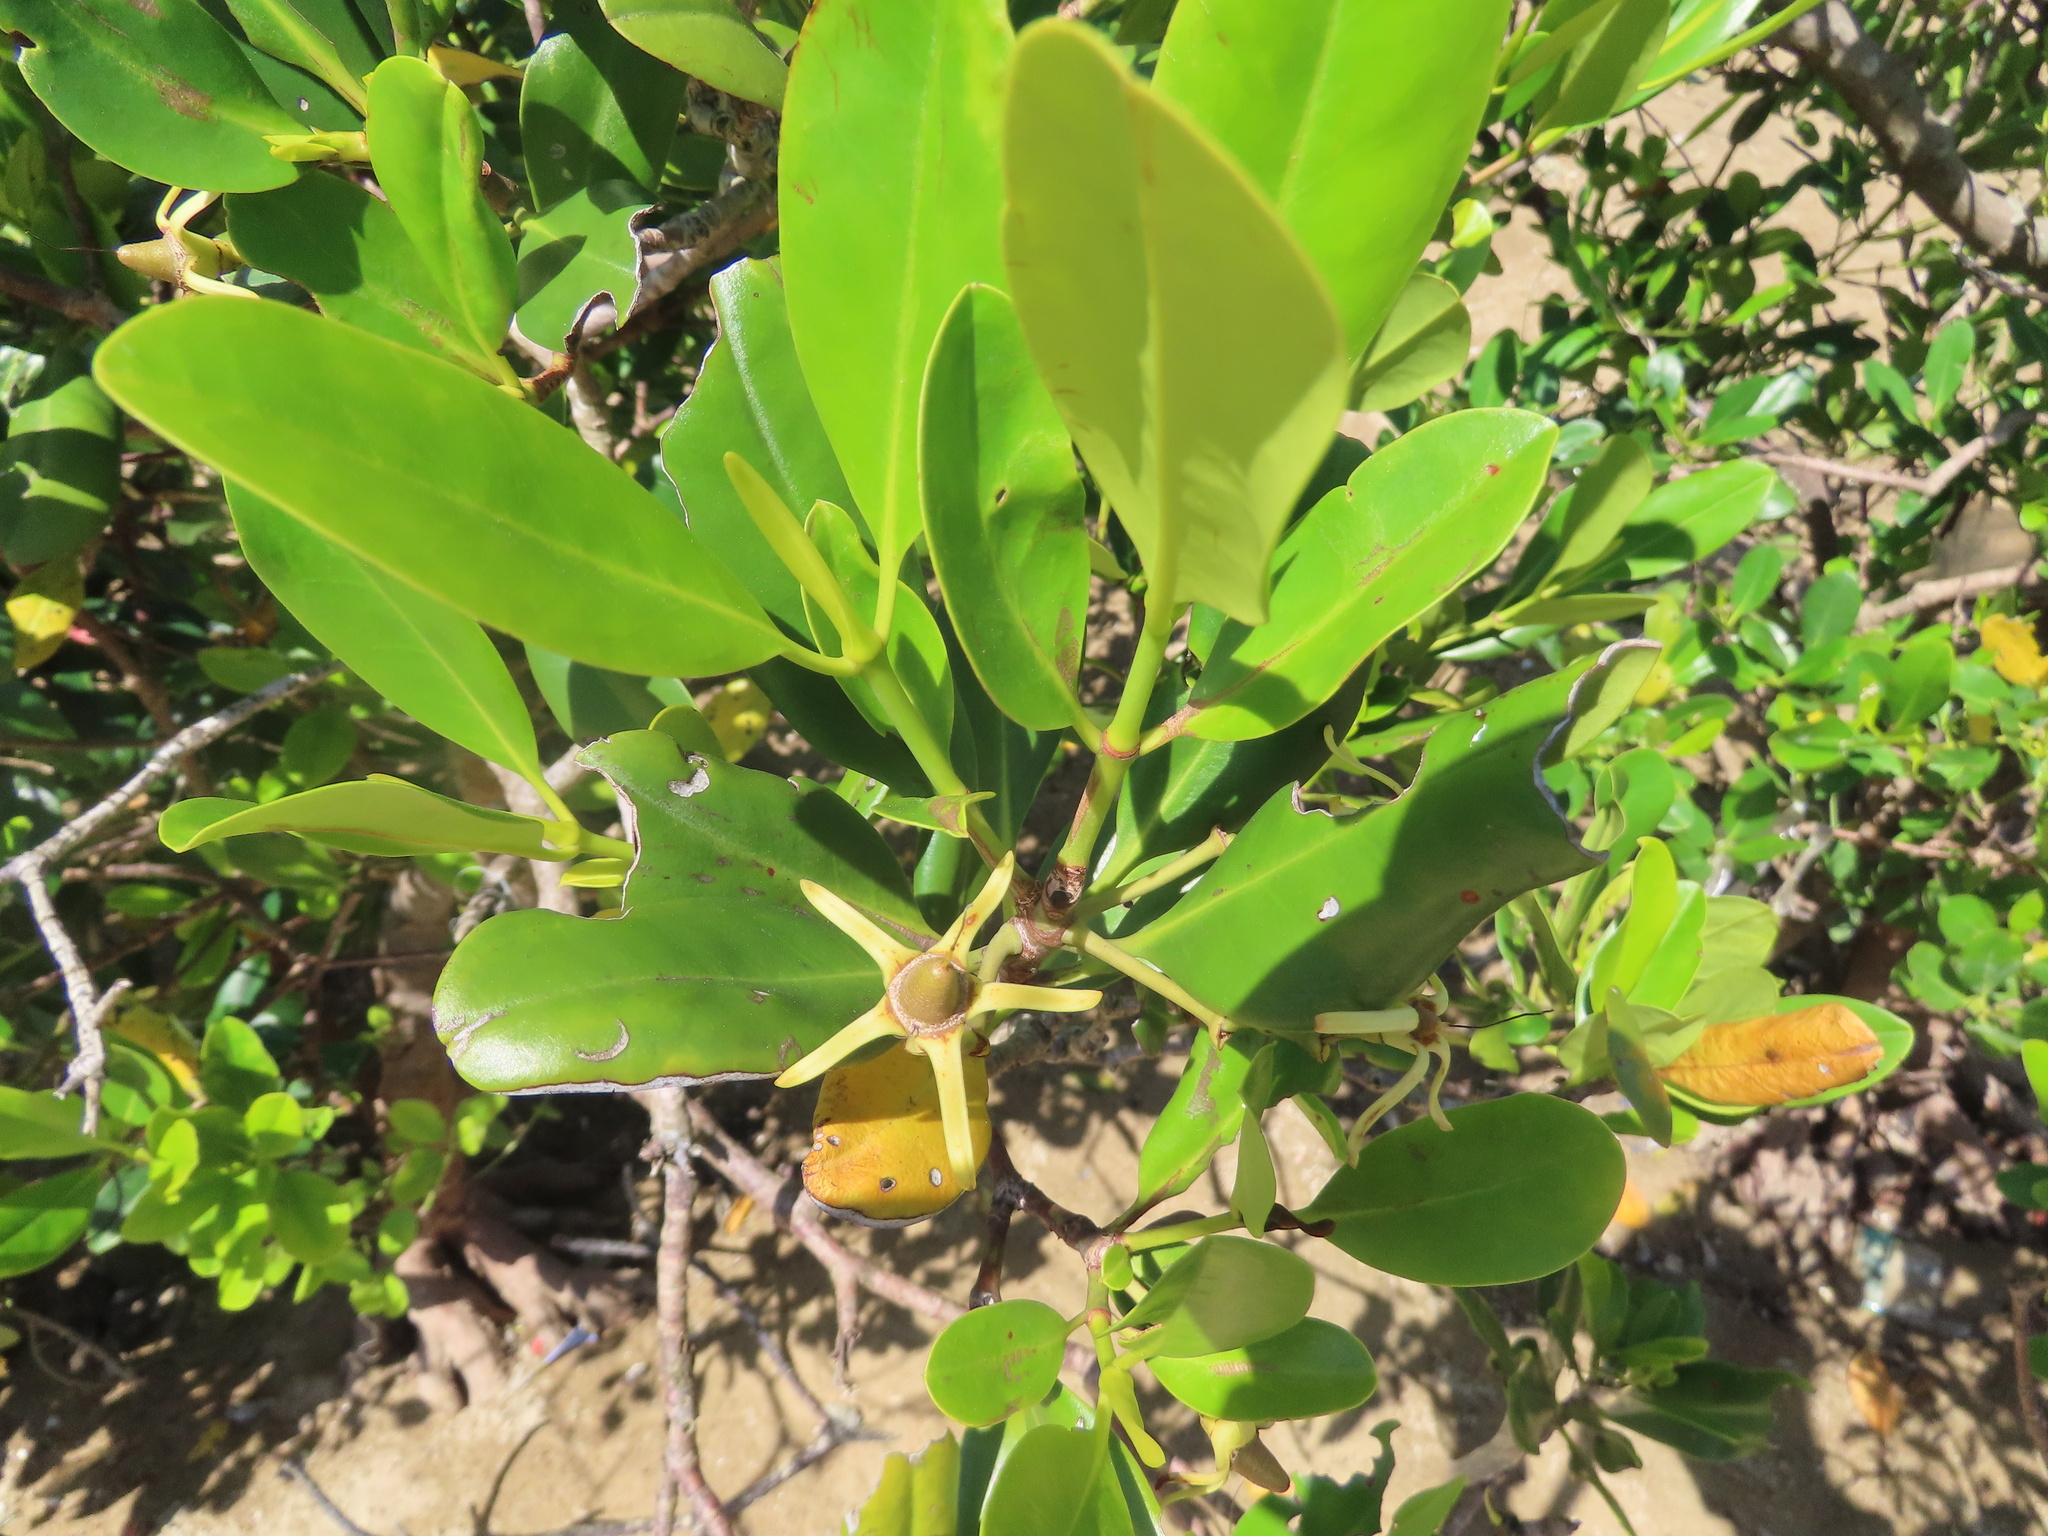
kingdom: Plantae
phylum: Tracheophyta
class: Magnoliopsida
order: Malpighiales
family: Rhizophoraceae
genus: Kandelia
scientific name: Kandelia obovata
